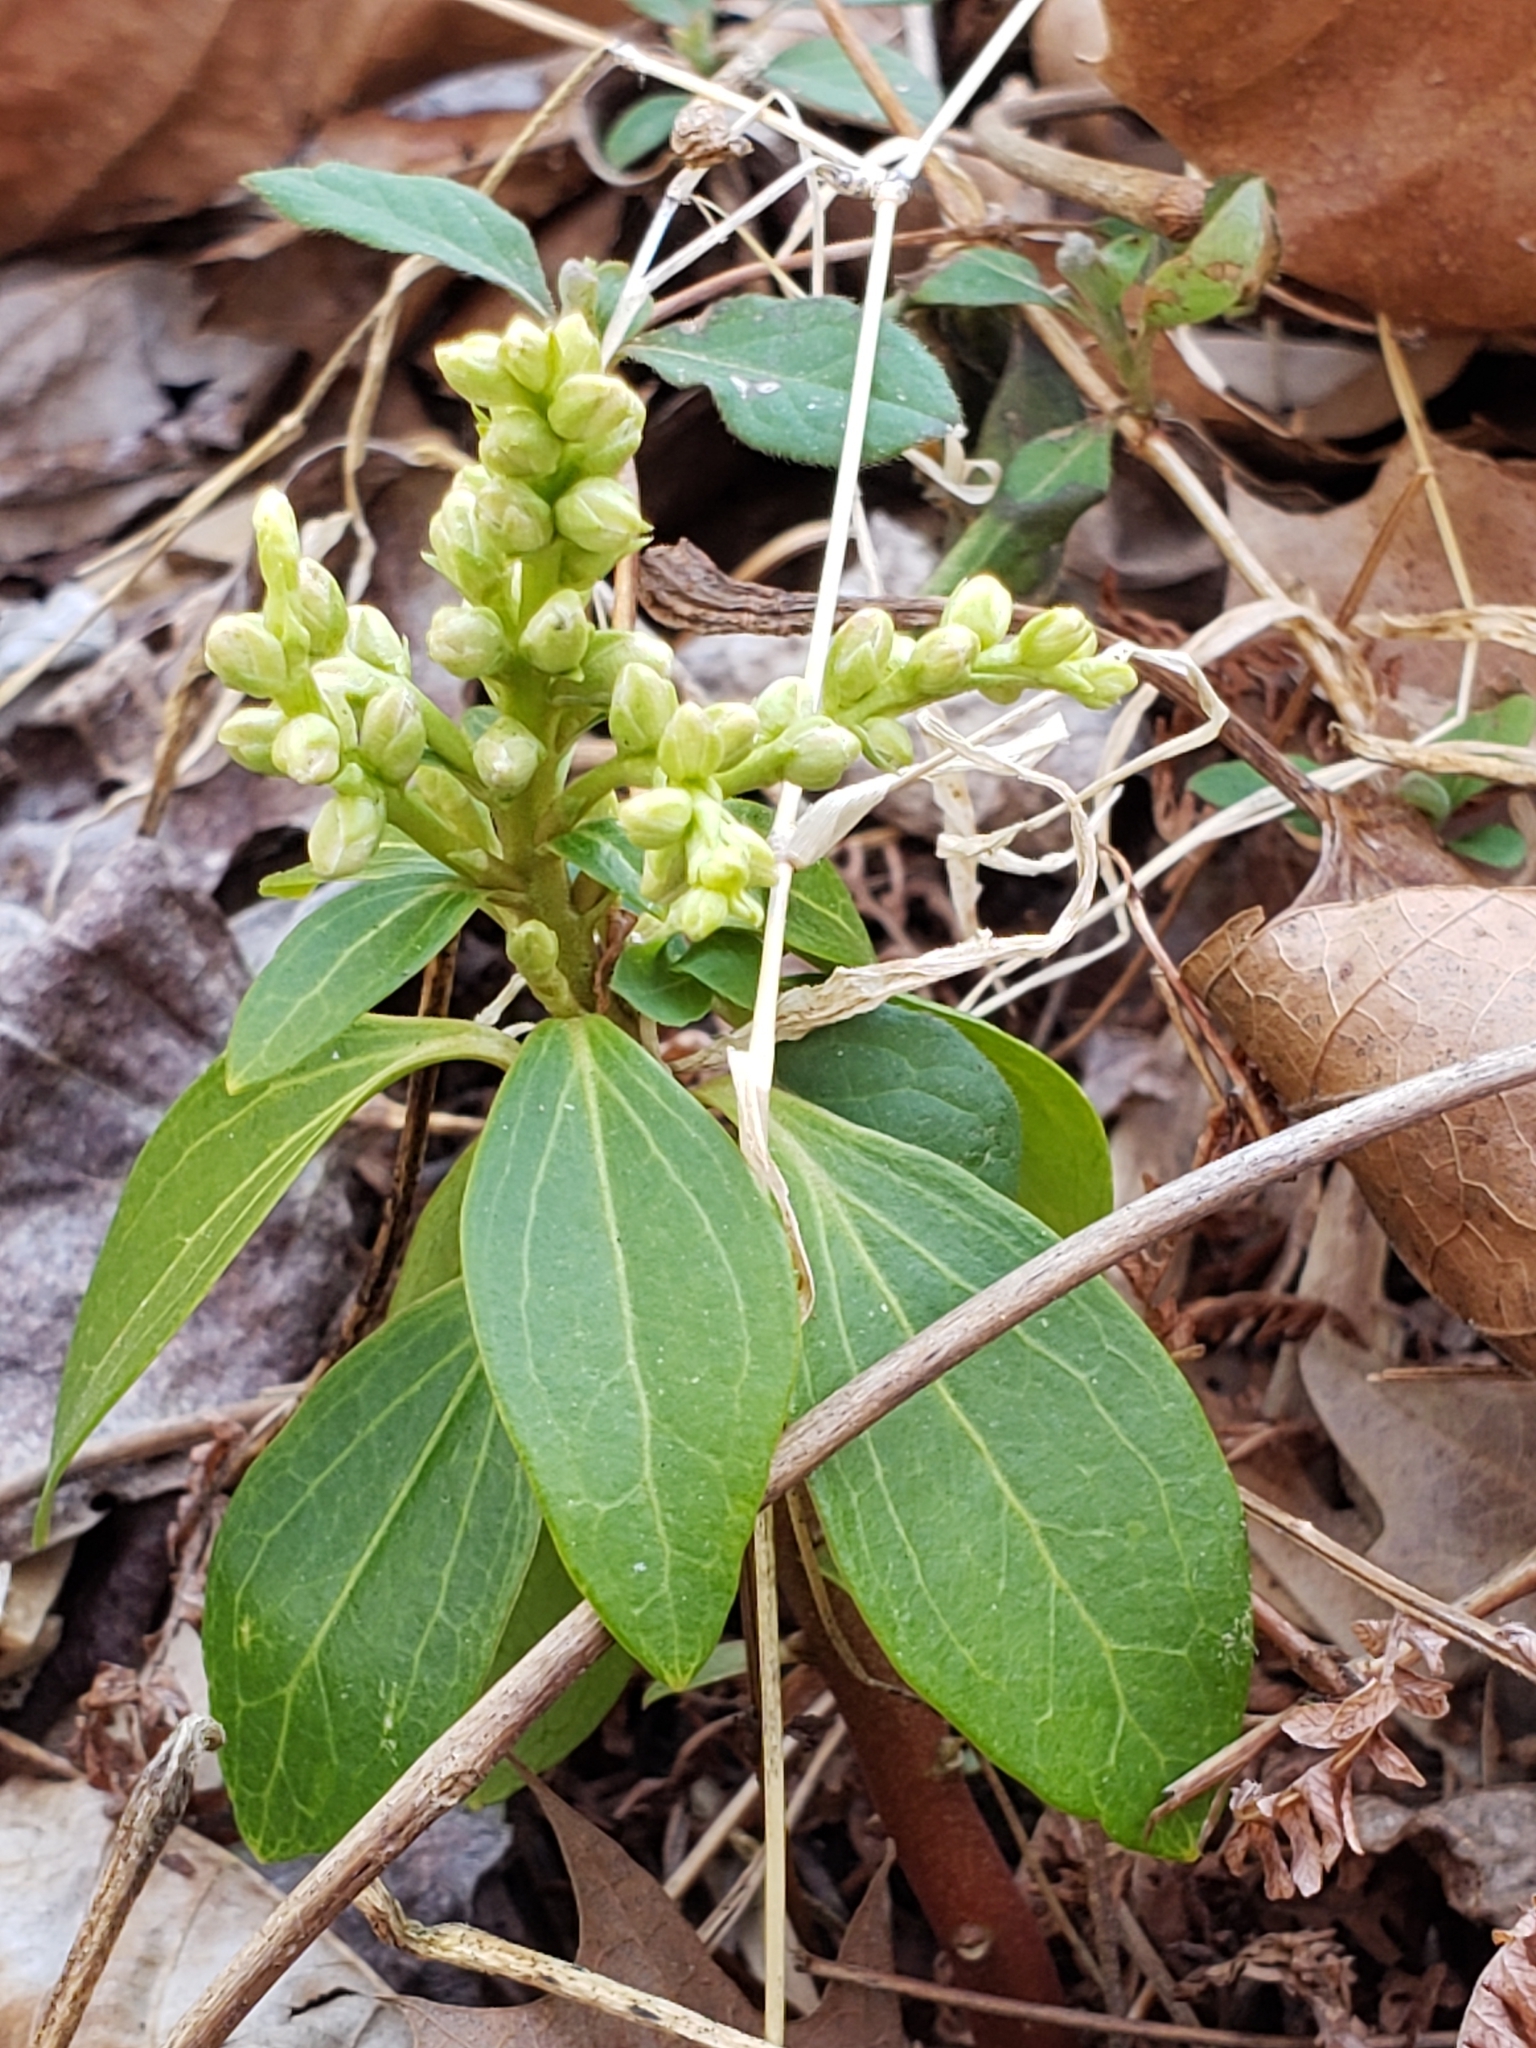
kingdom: Plantae
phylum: Tracheophyta
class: Magnoliopsida
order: Buxales
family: Buxaceae
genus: Pachysandra
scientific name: Pachysandra terminalis
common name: Japanese pachysandra
